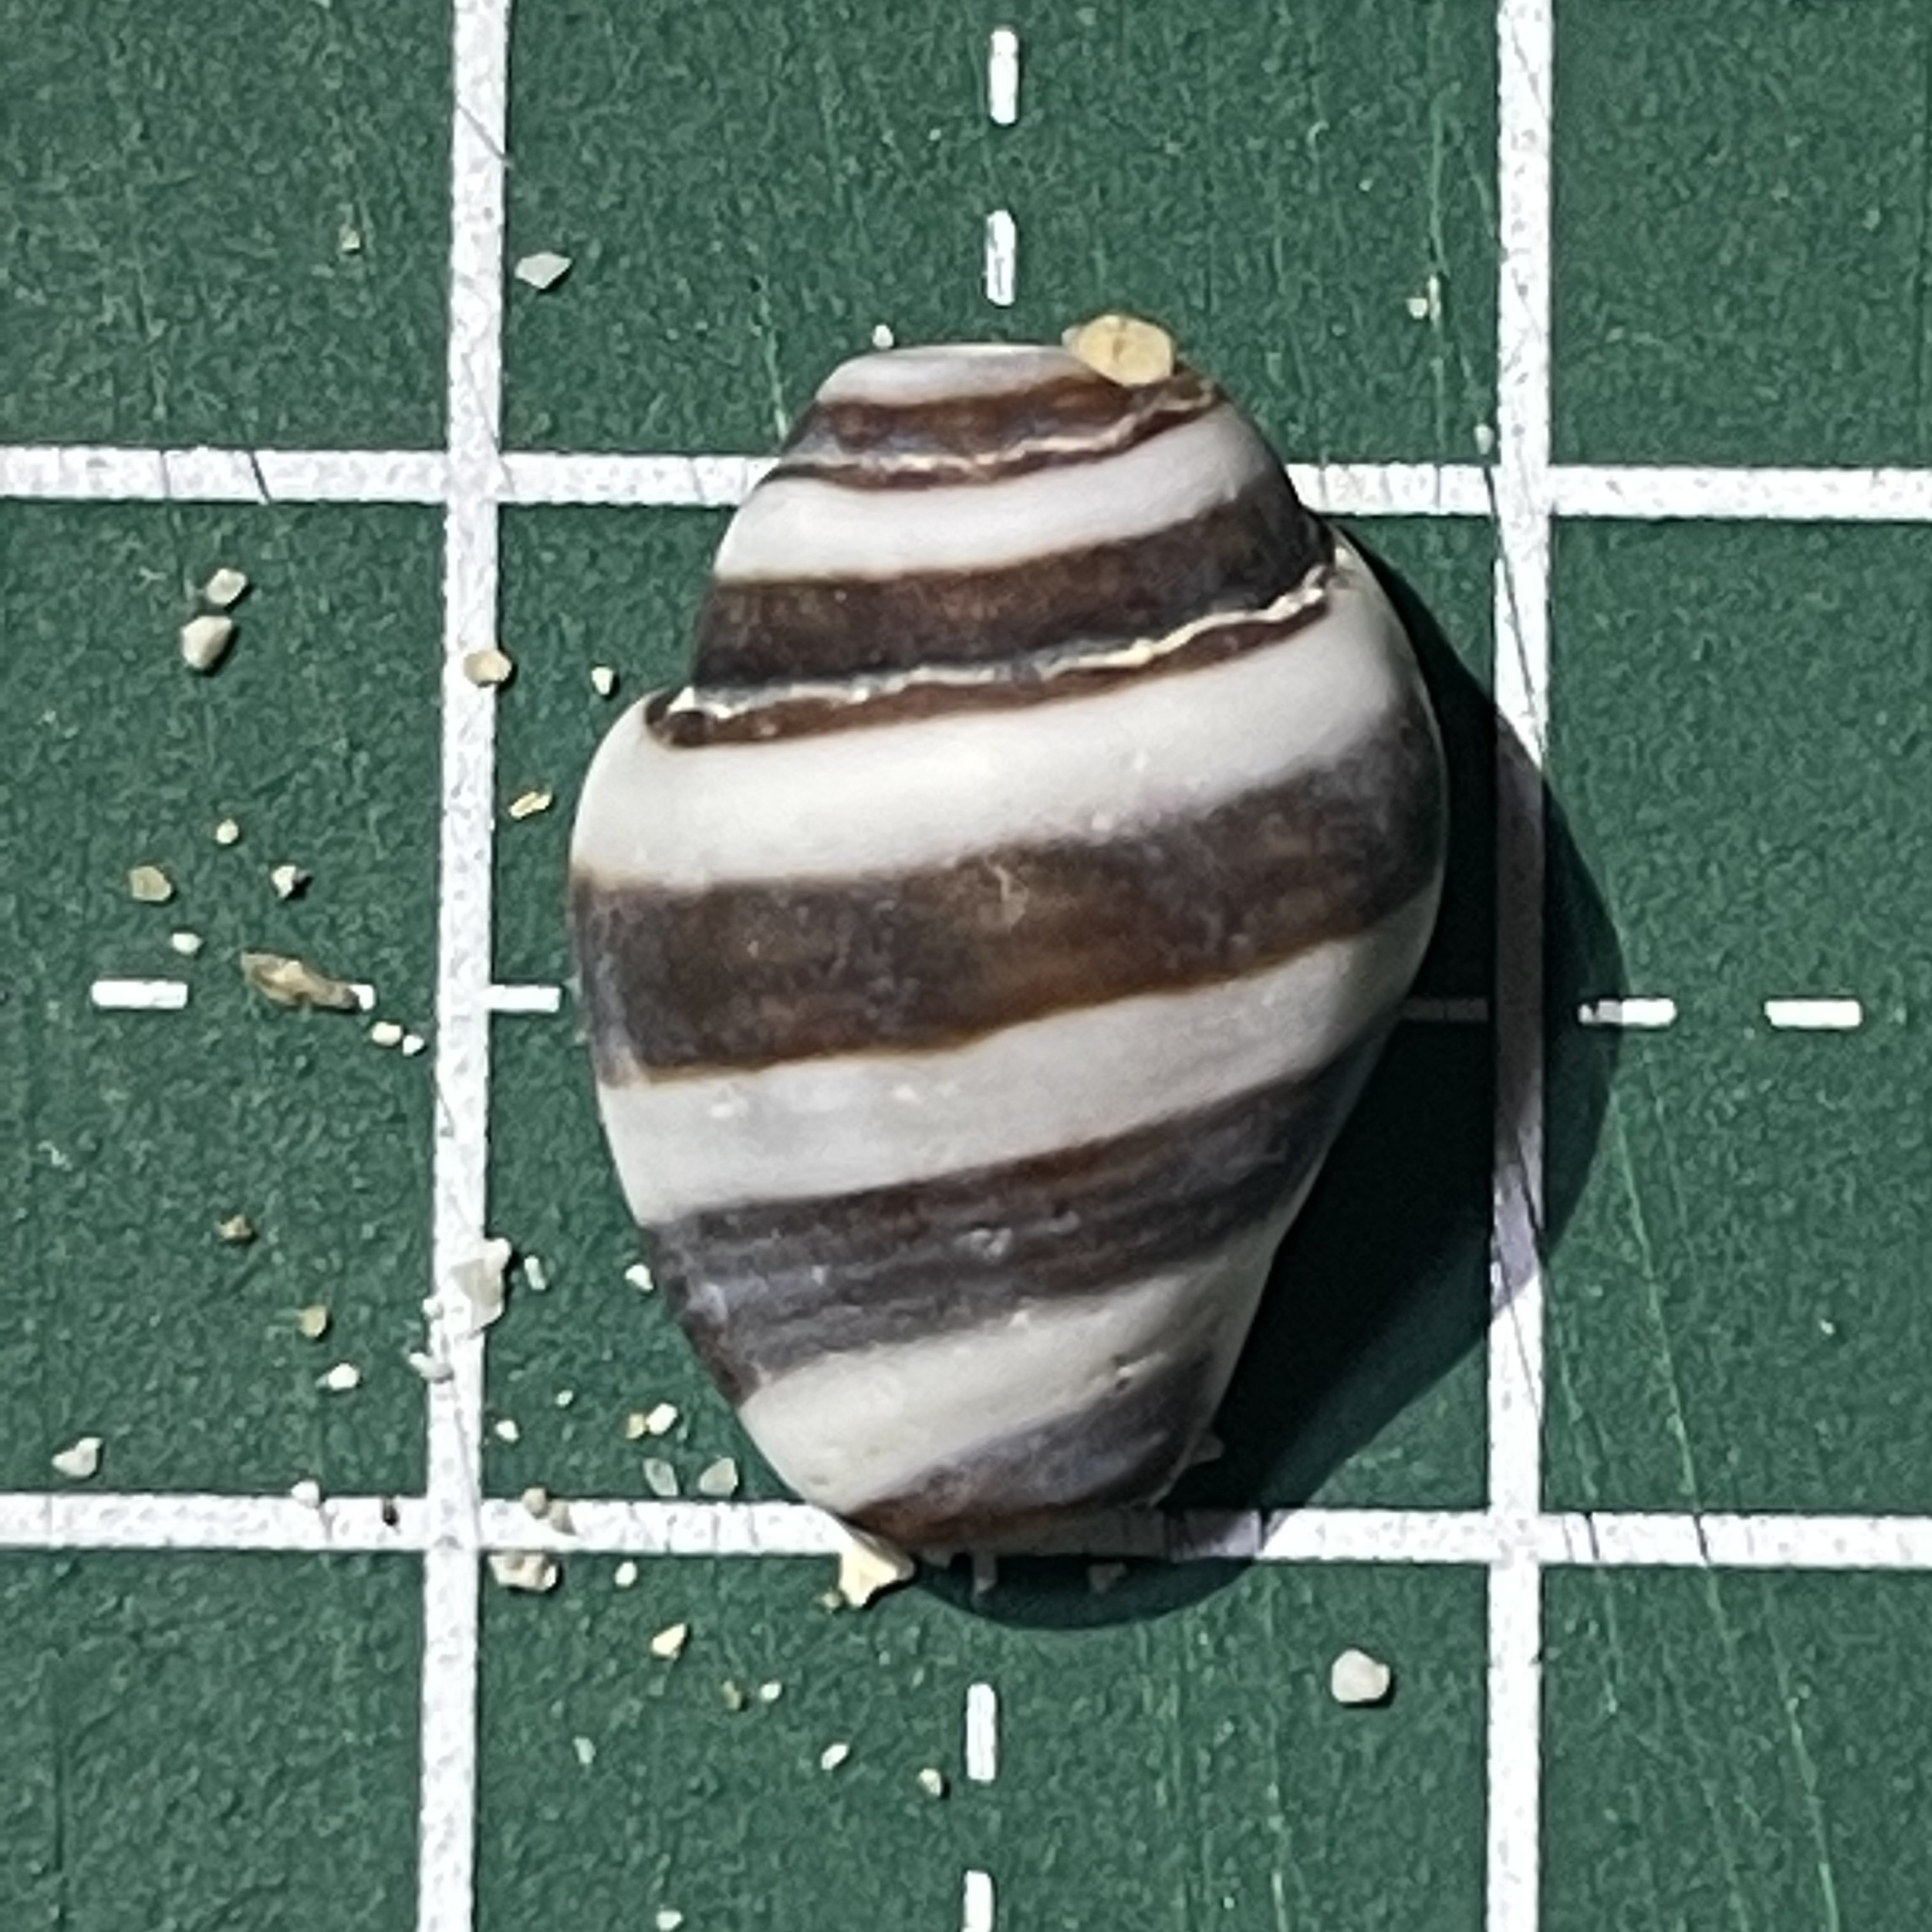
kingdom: Animalia
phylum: Mollusca
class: Gastropoda
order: Neogastropoda
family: Pisaniidae
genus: Engina
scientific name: Engina mendicaria
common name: Bumble bee snail
